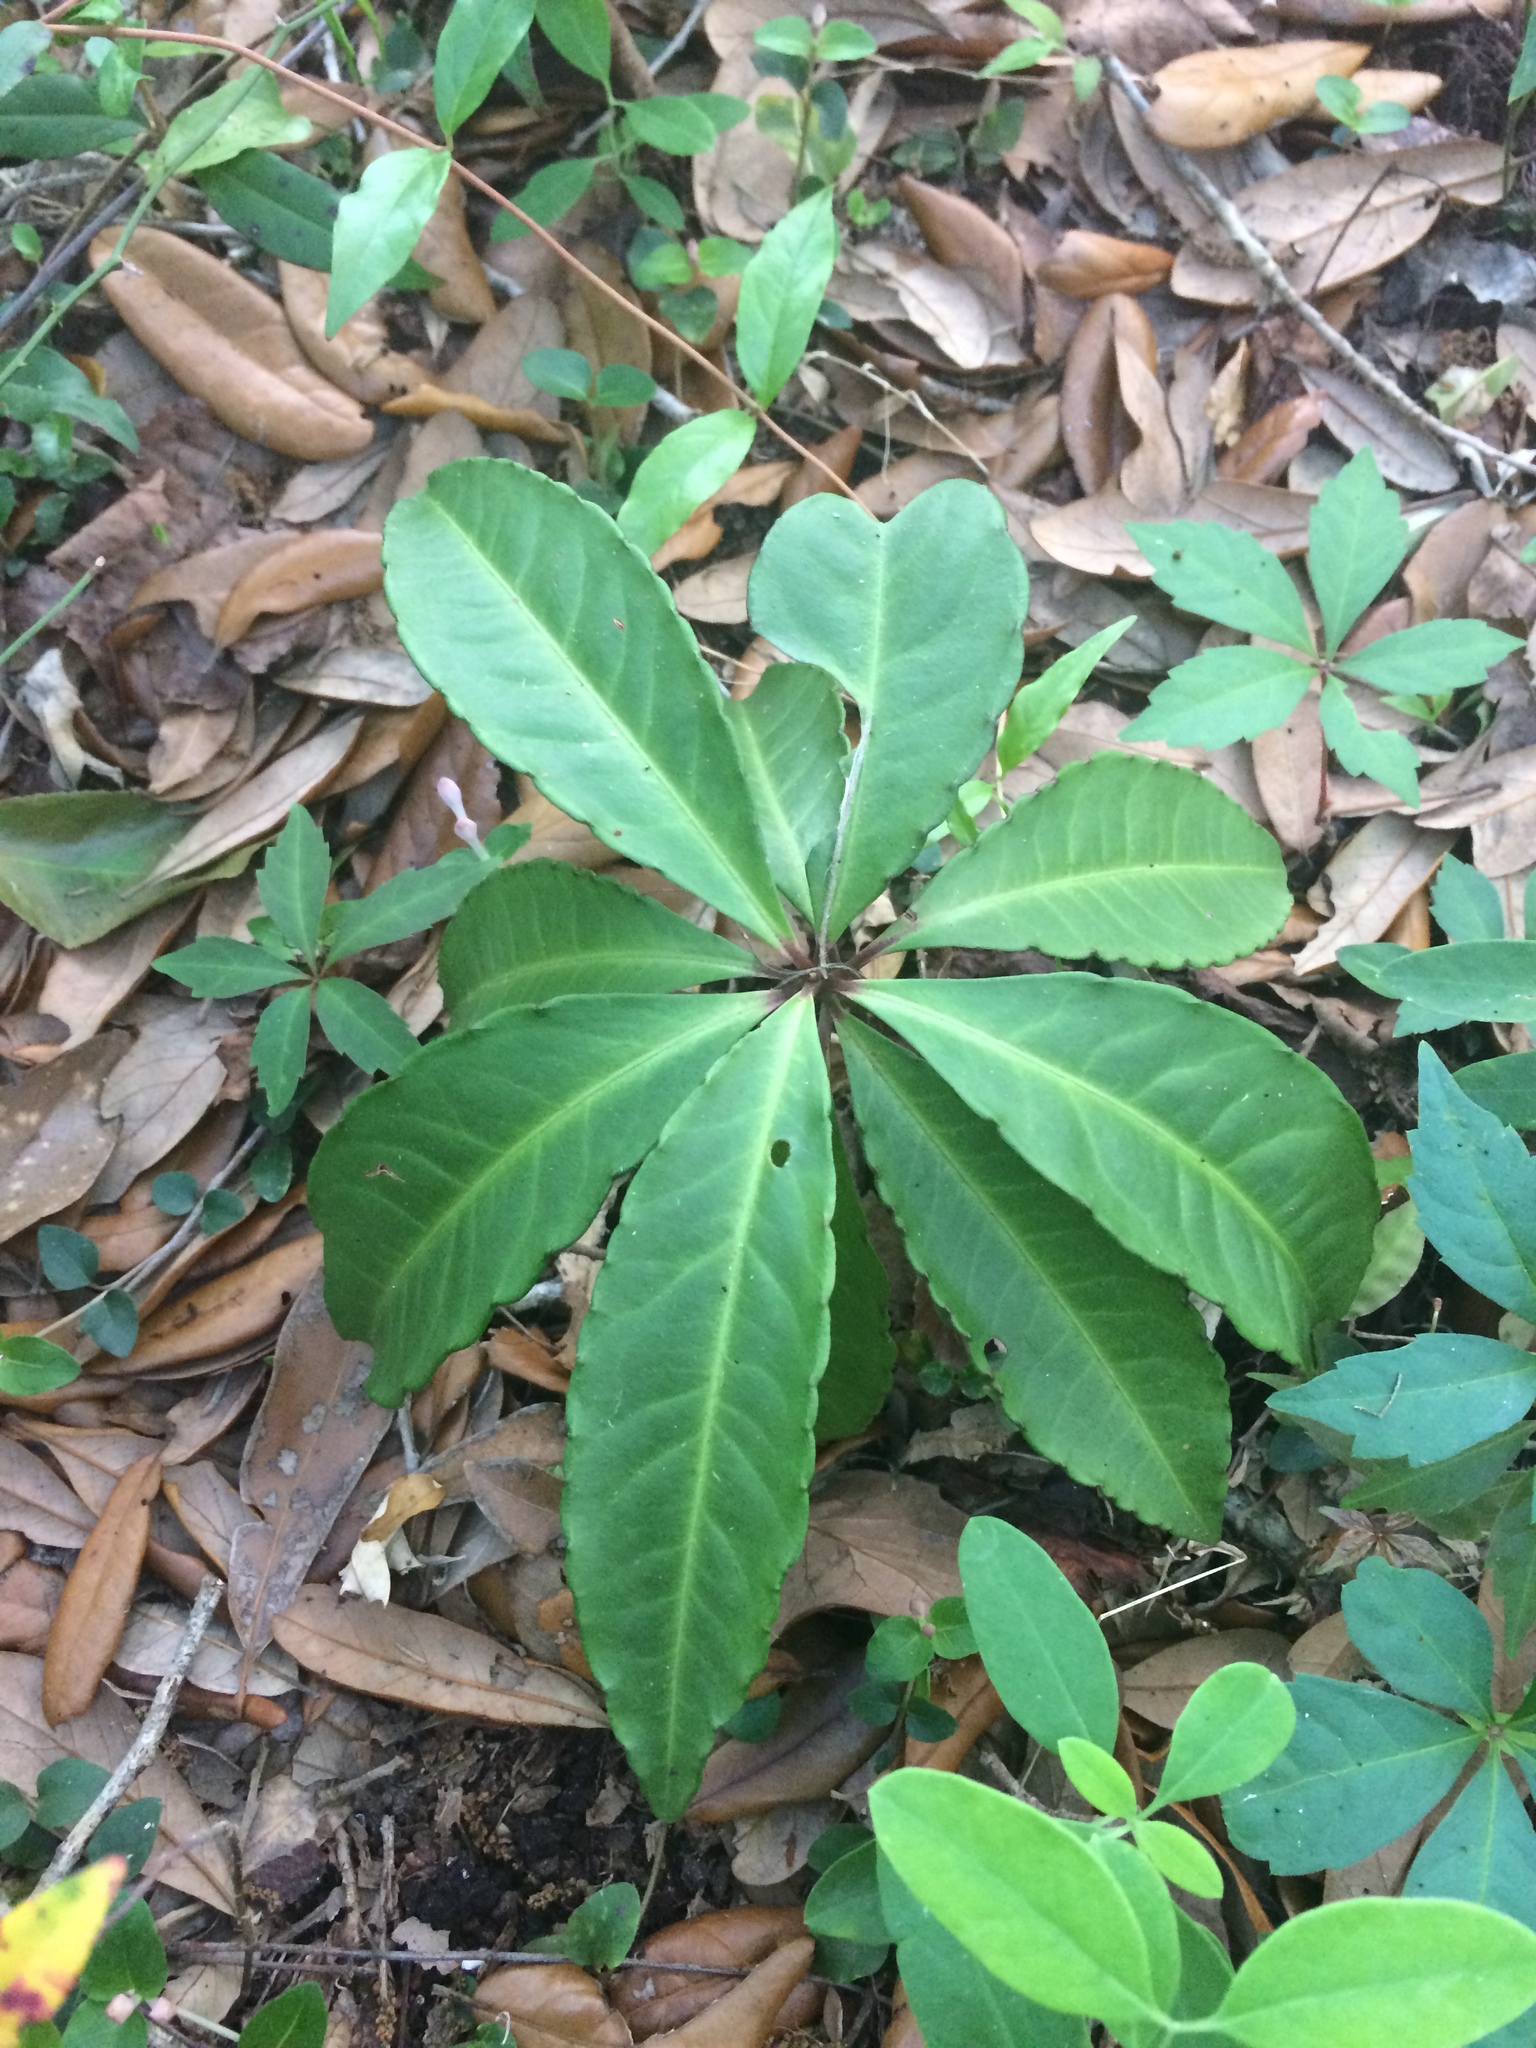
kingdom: Plantae
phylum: Tracheophyta
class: Magnoliopsida
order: Ericales
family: Primulaceae
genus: Ardisia
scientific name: Ardisia crenata
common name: Hen's eyes
